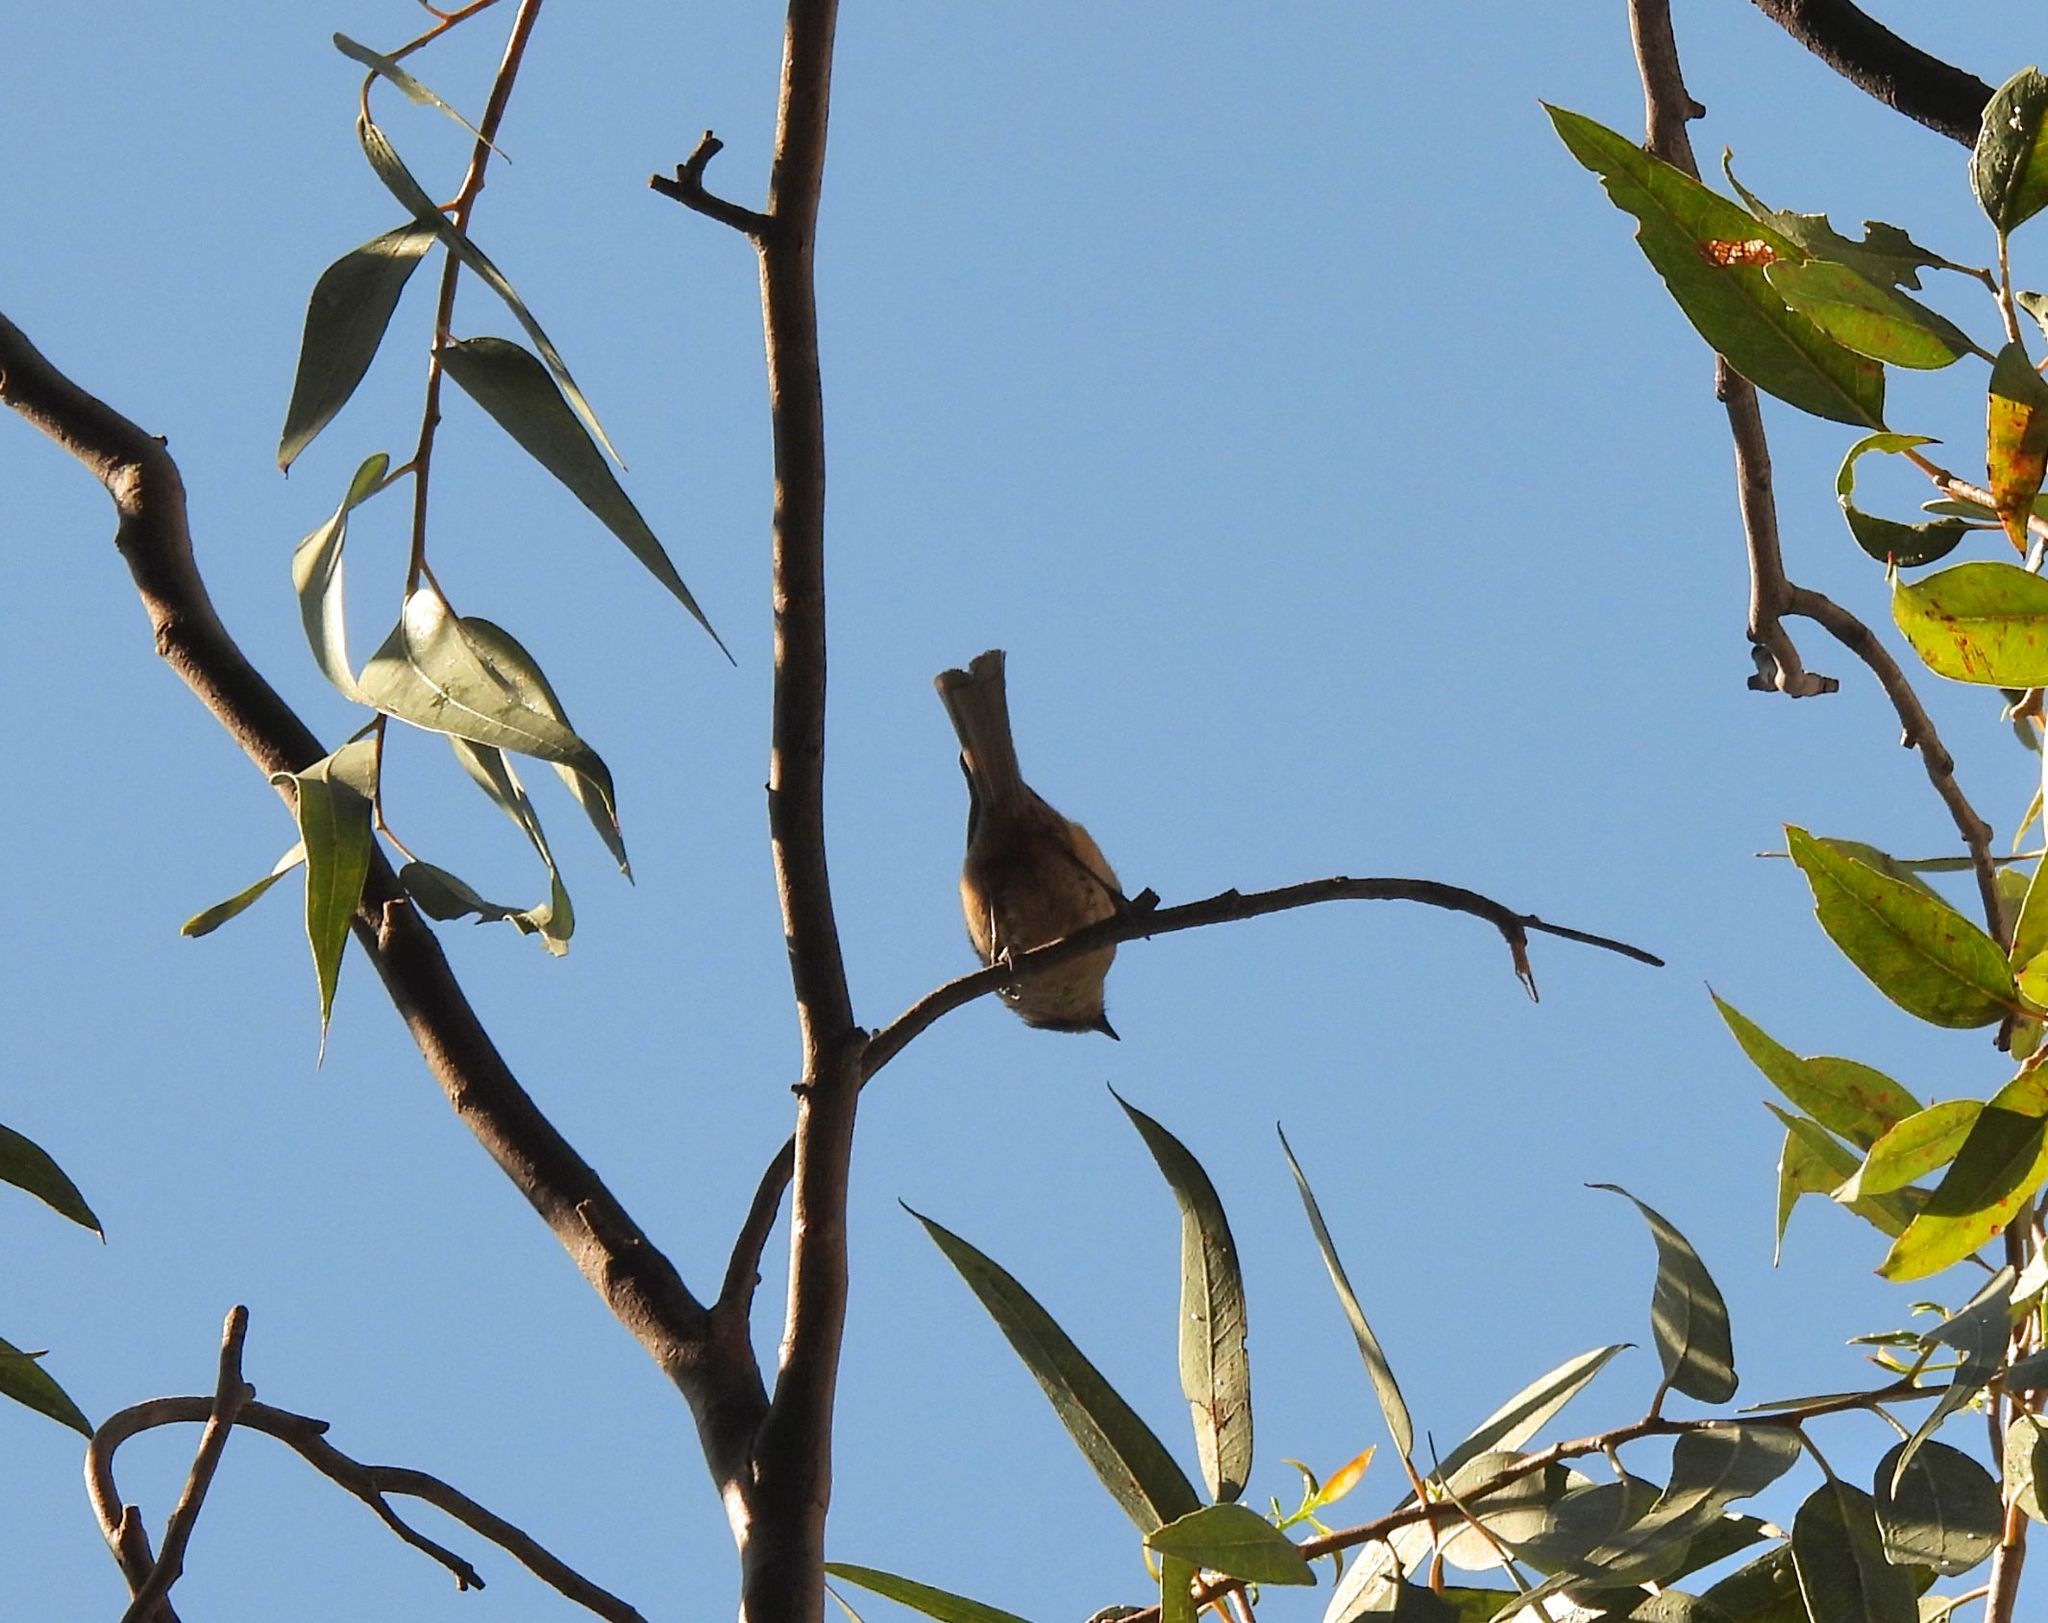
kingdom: Animalia
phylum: Chordata
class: Aves
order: Passeriformes
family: Troglodytidae
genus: Thryomanes
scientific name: Thryomanes bewickii
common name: Bewick's wren
